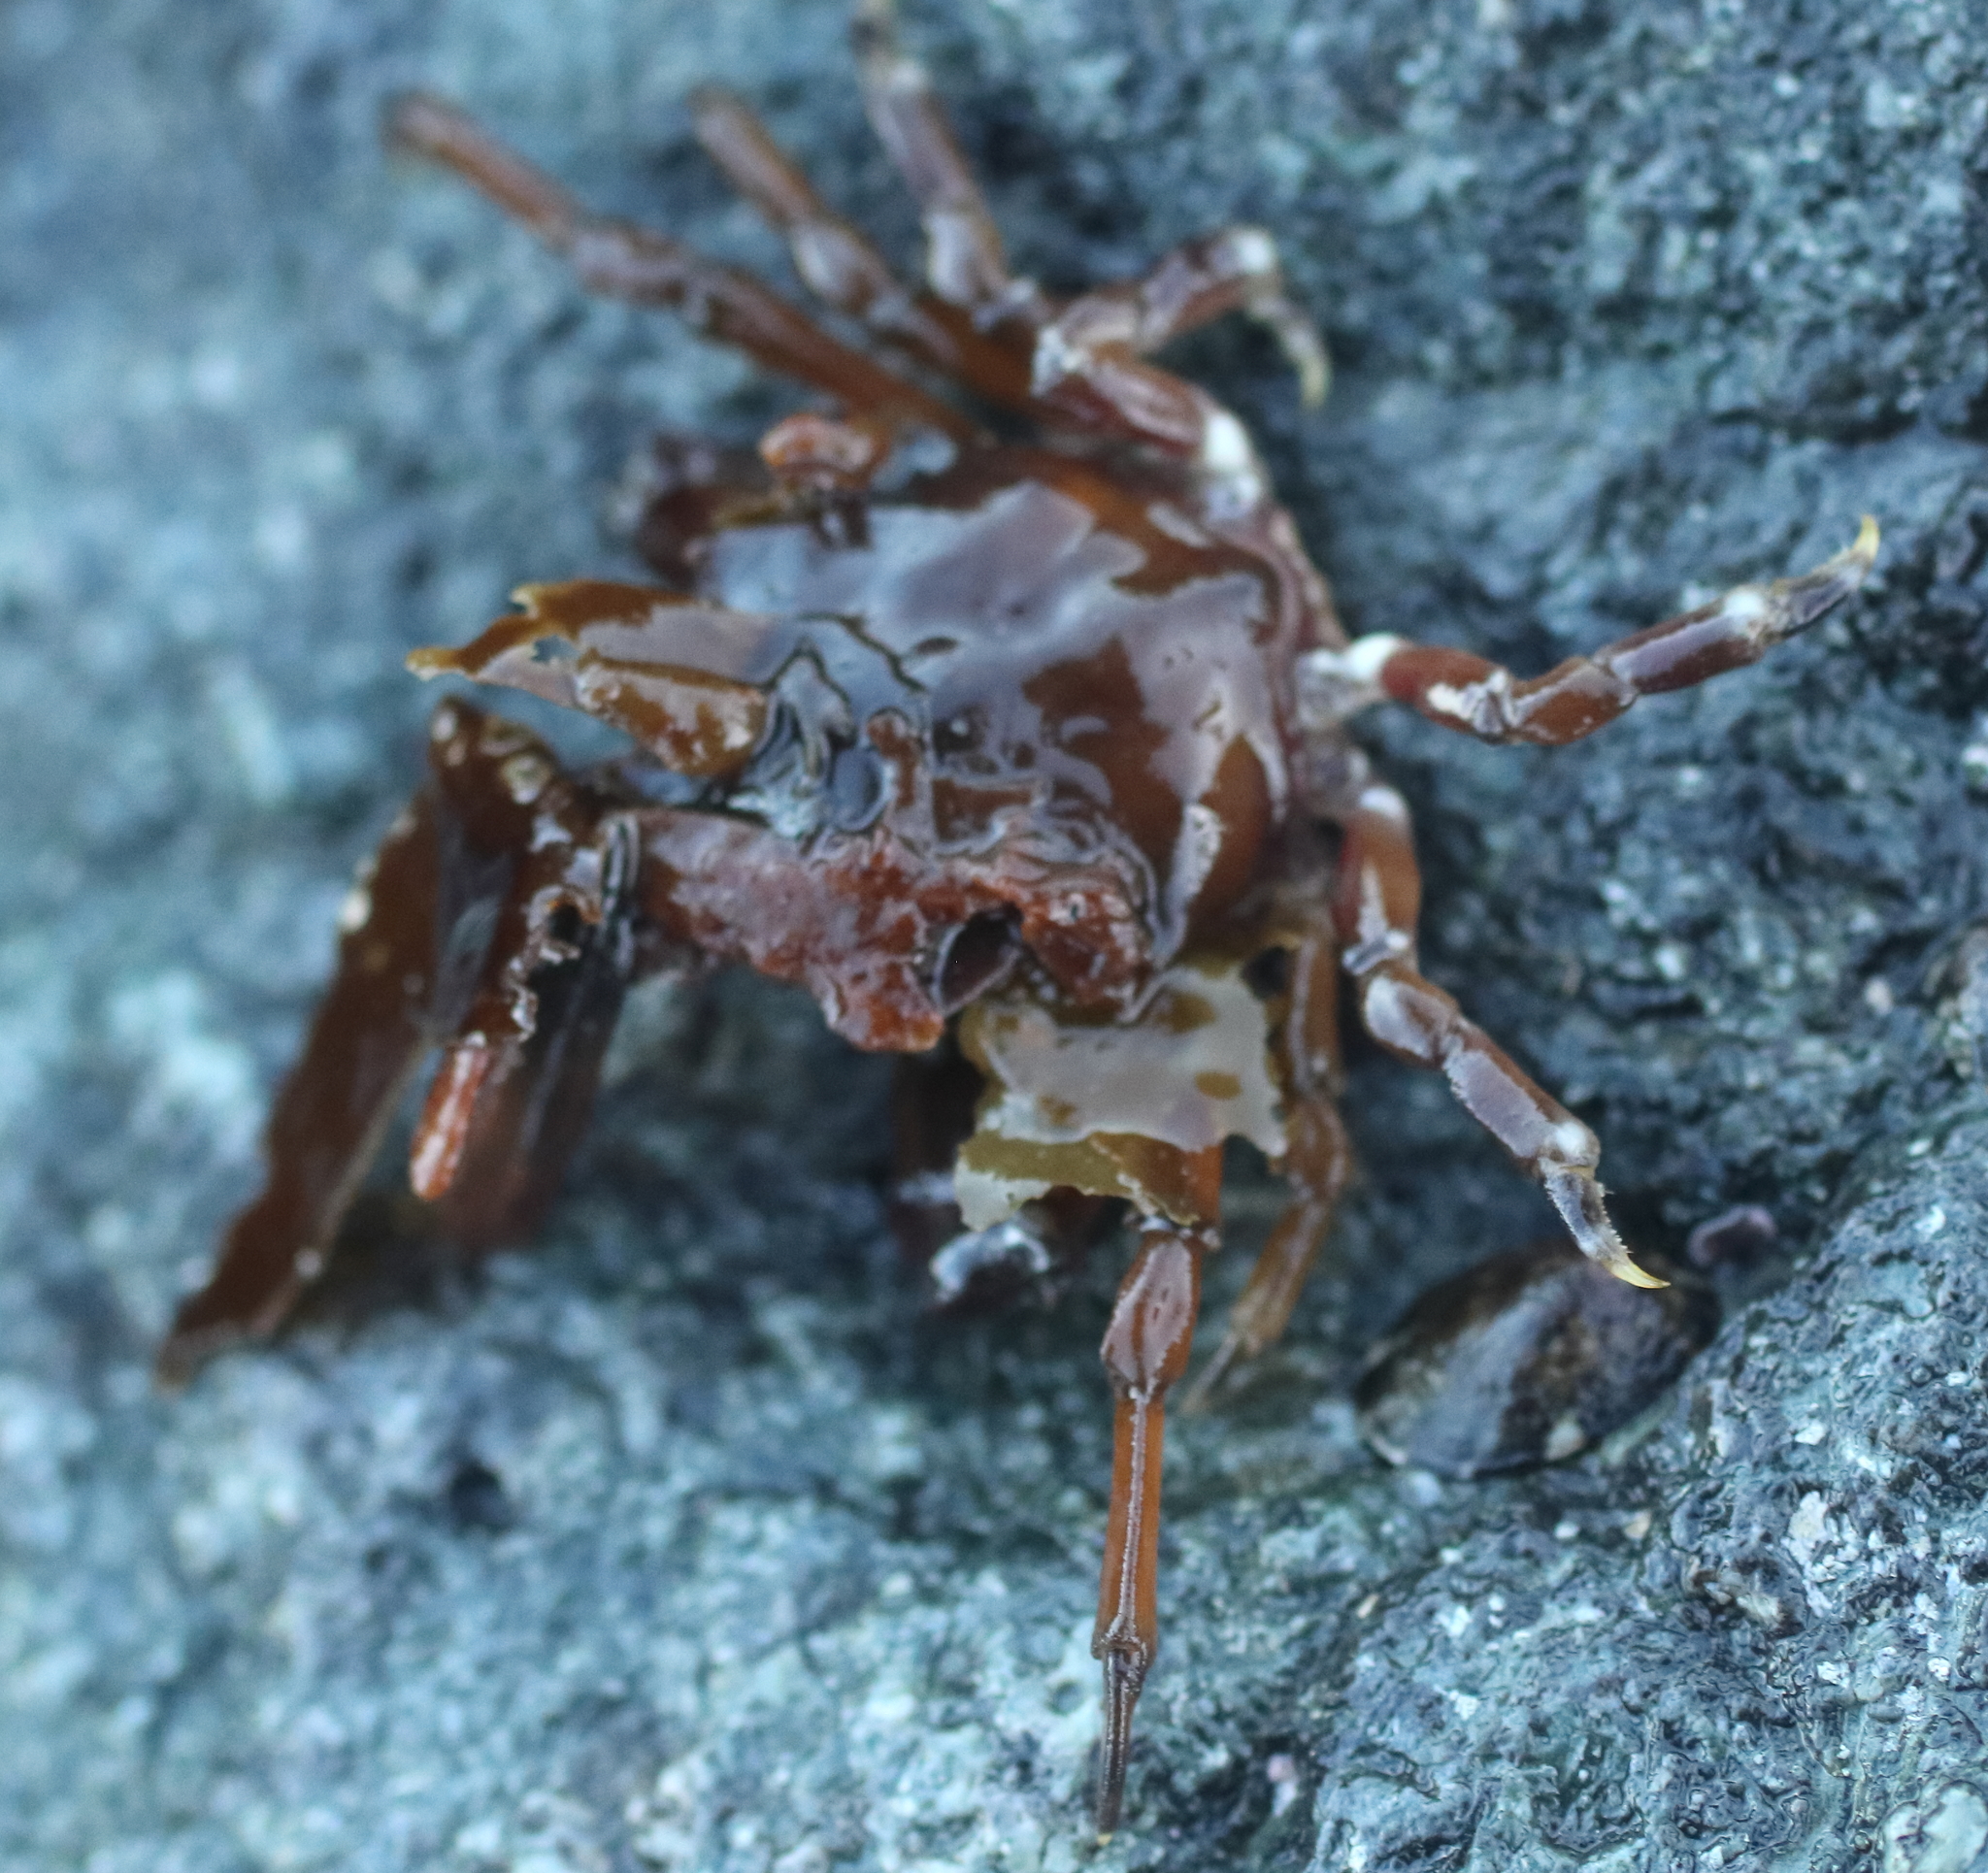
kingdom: Animalia
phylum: Arthropoda
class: Malacostraca
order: Decapoda
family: Epialtidae
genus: Pugettia
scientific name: Pugettia gracilis
